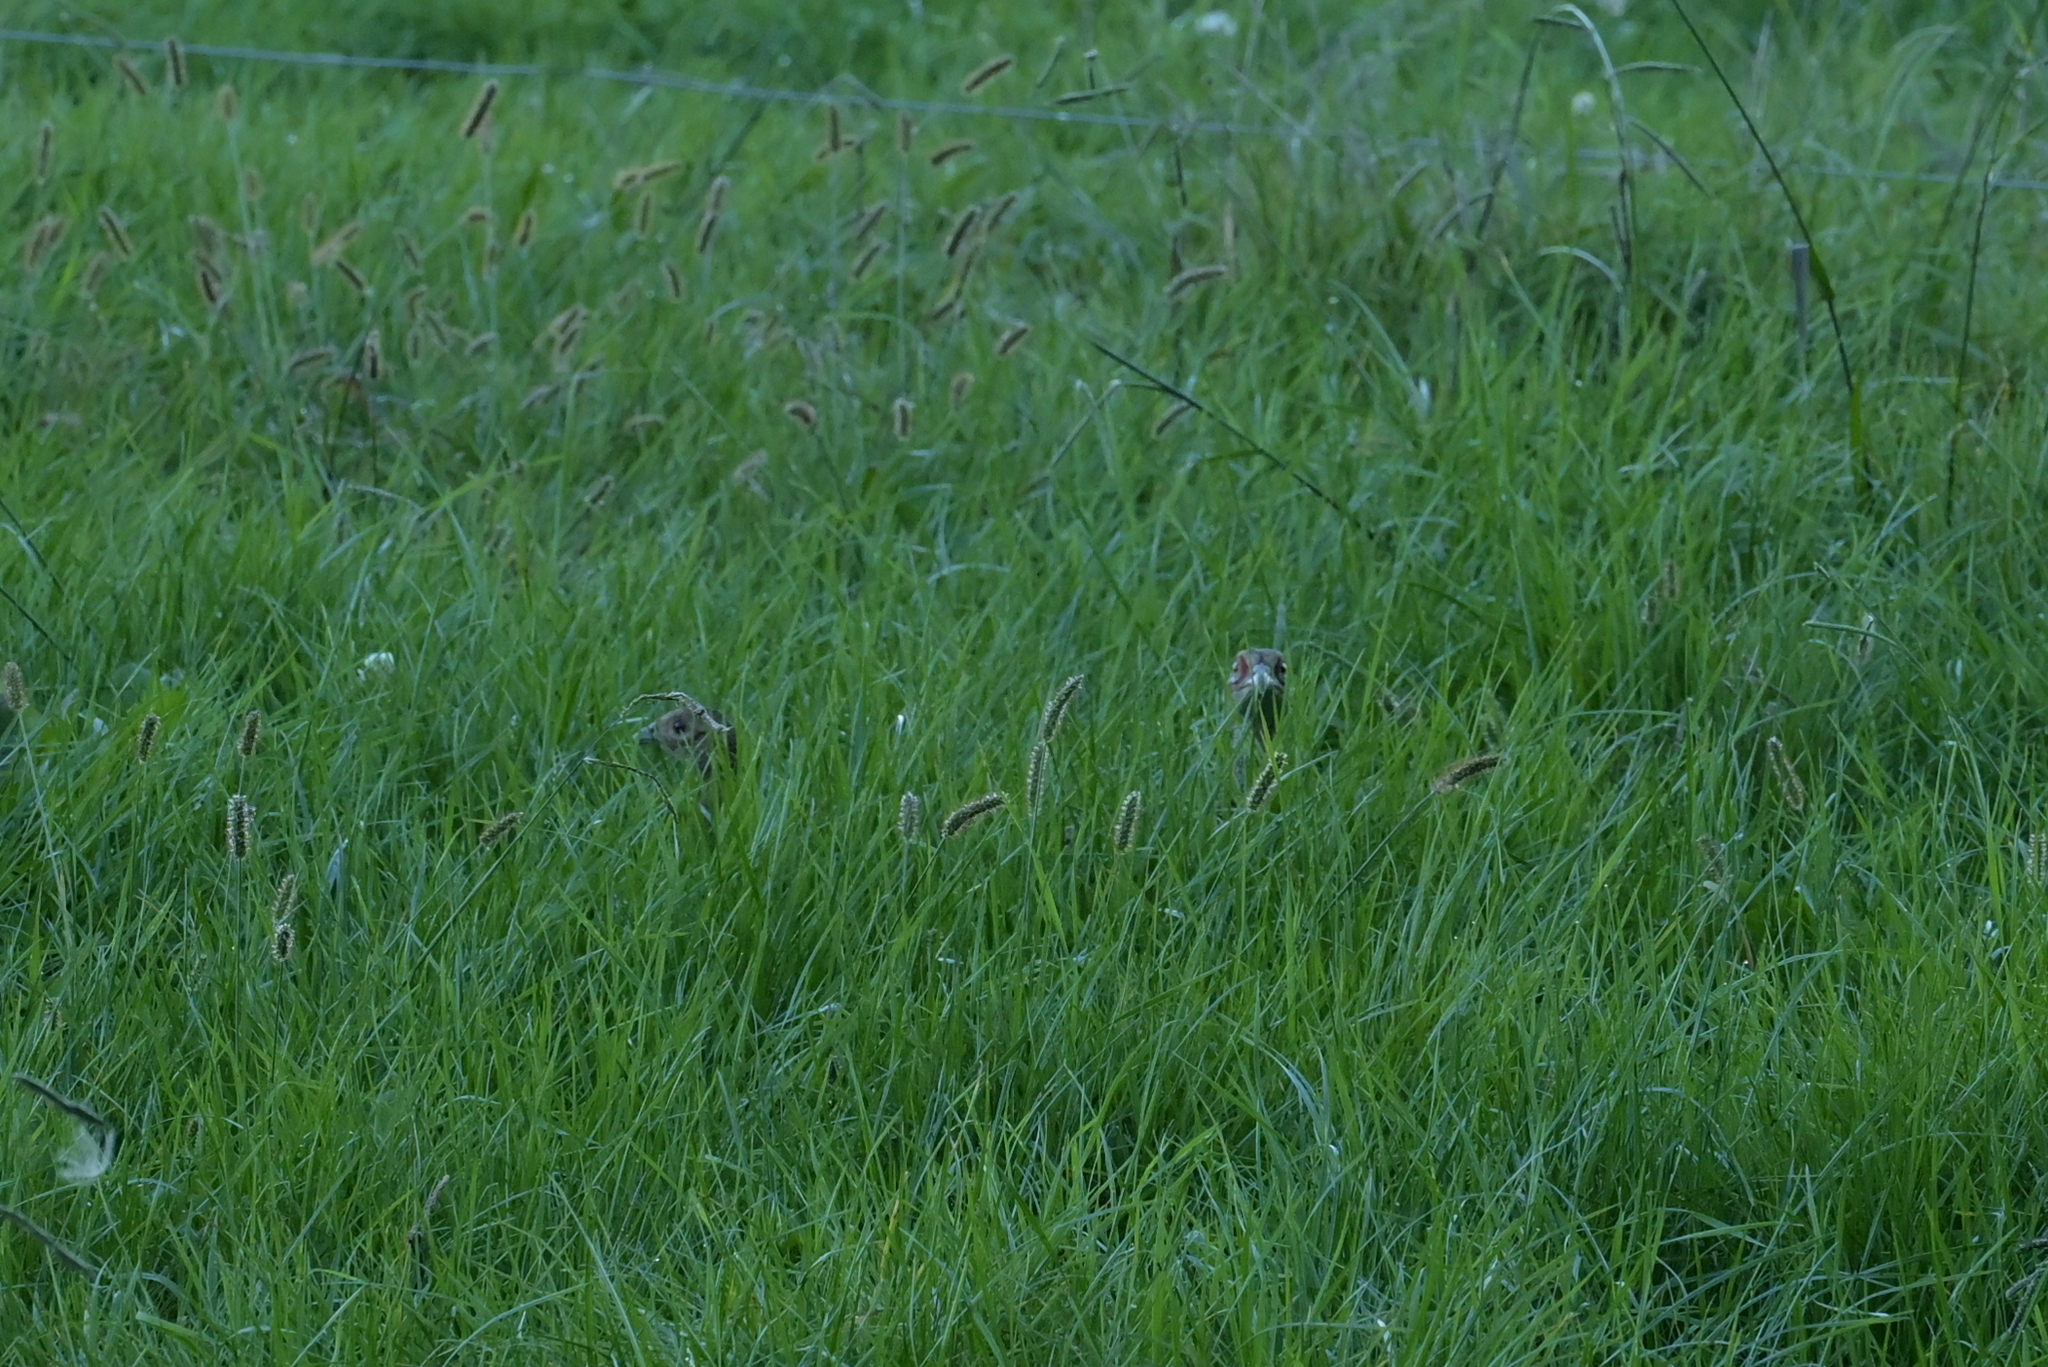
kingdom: Animalia
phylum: Chordata
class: Aves
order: Galliformes
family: Phasianidae
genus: Phasianus
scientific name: Phasianus colchicus
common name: Common pheasant
